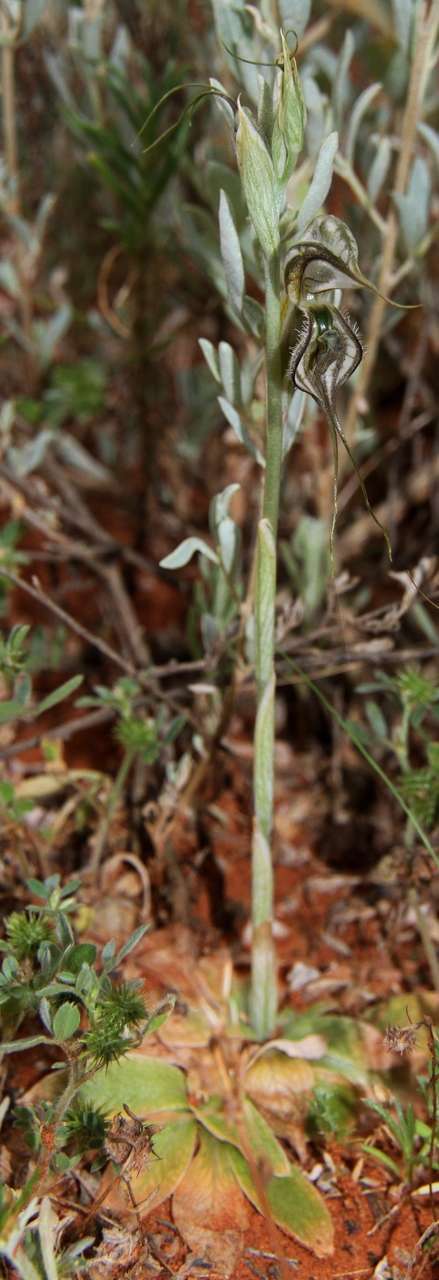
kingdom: Plantae
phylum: Tracheophyta
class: Liliopsida
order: Asparagales
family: Orchidaceae
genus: Pterostylis
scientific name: Pterostylis biseta
